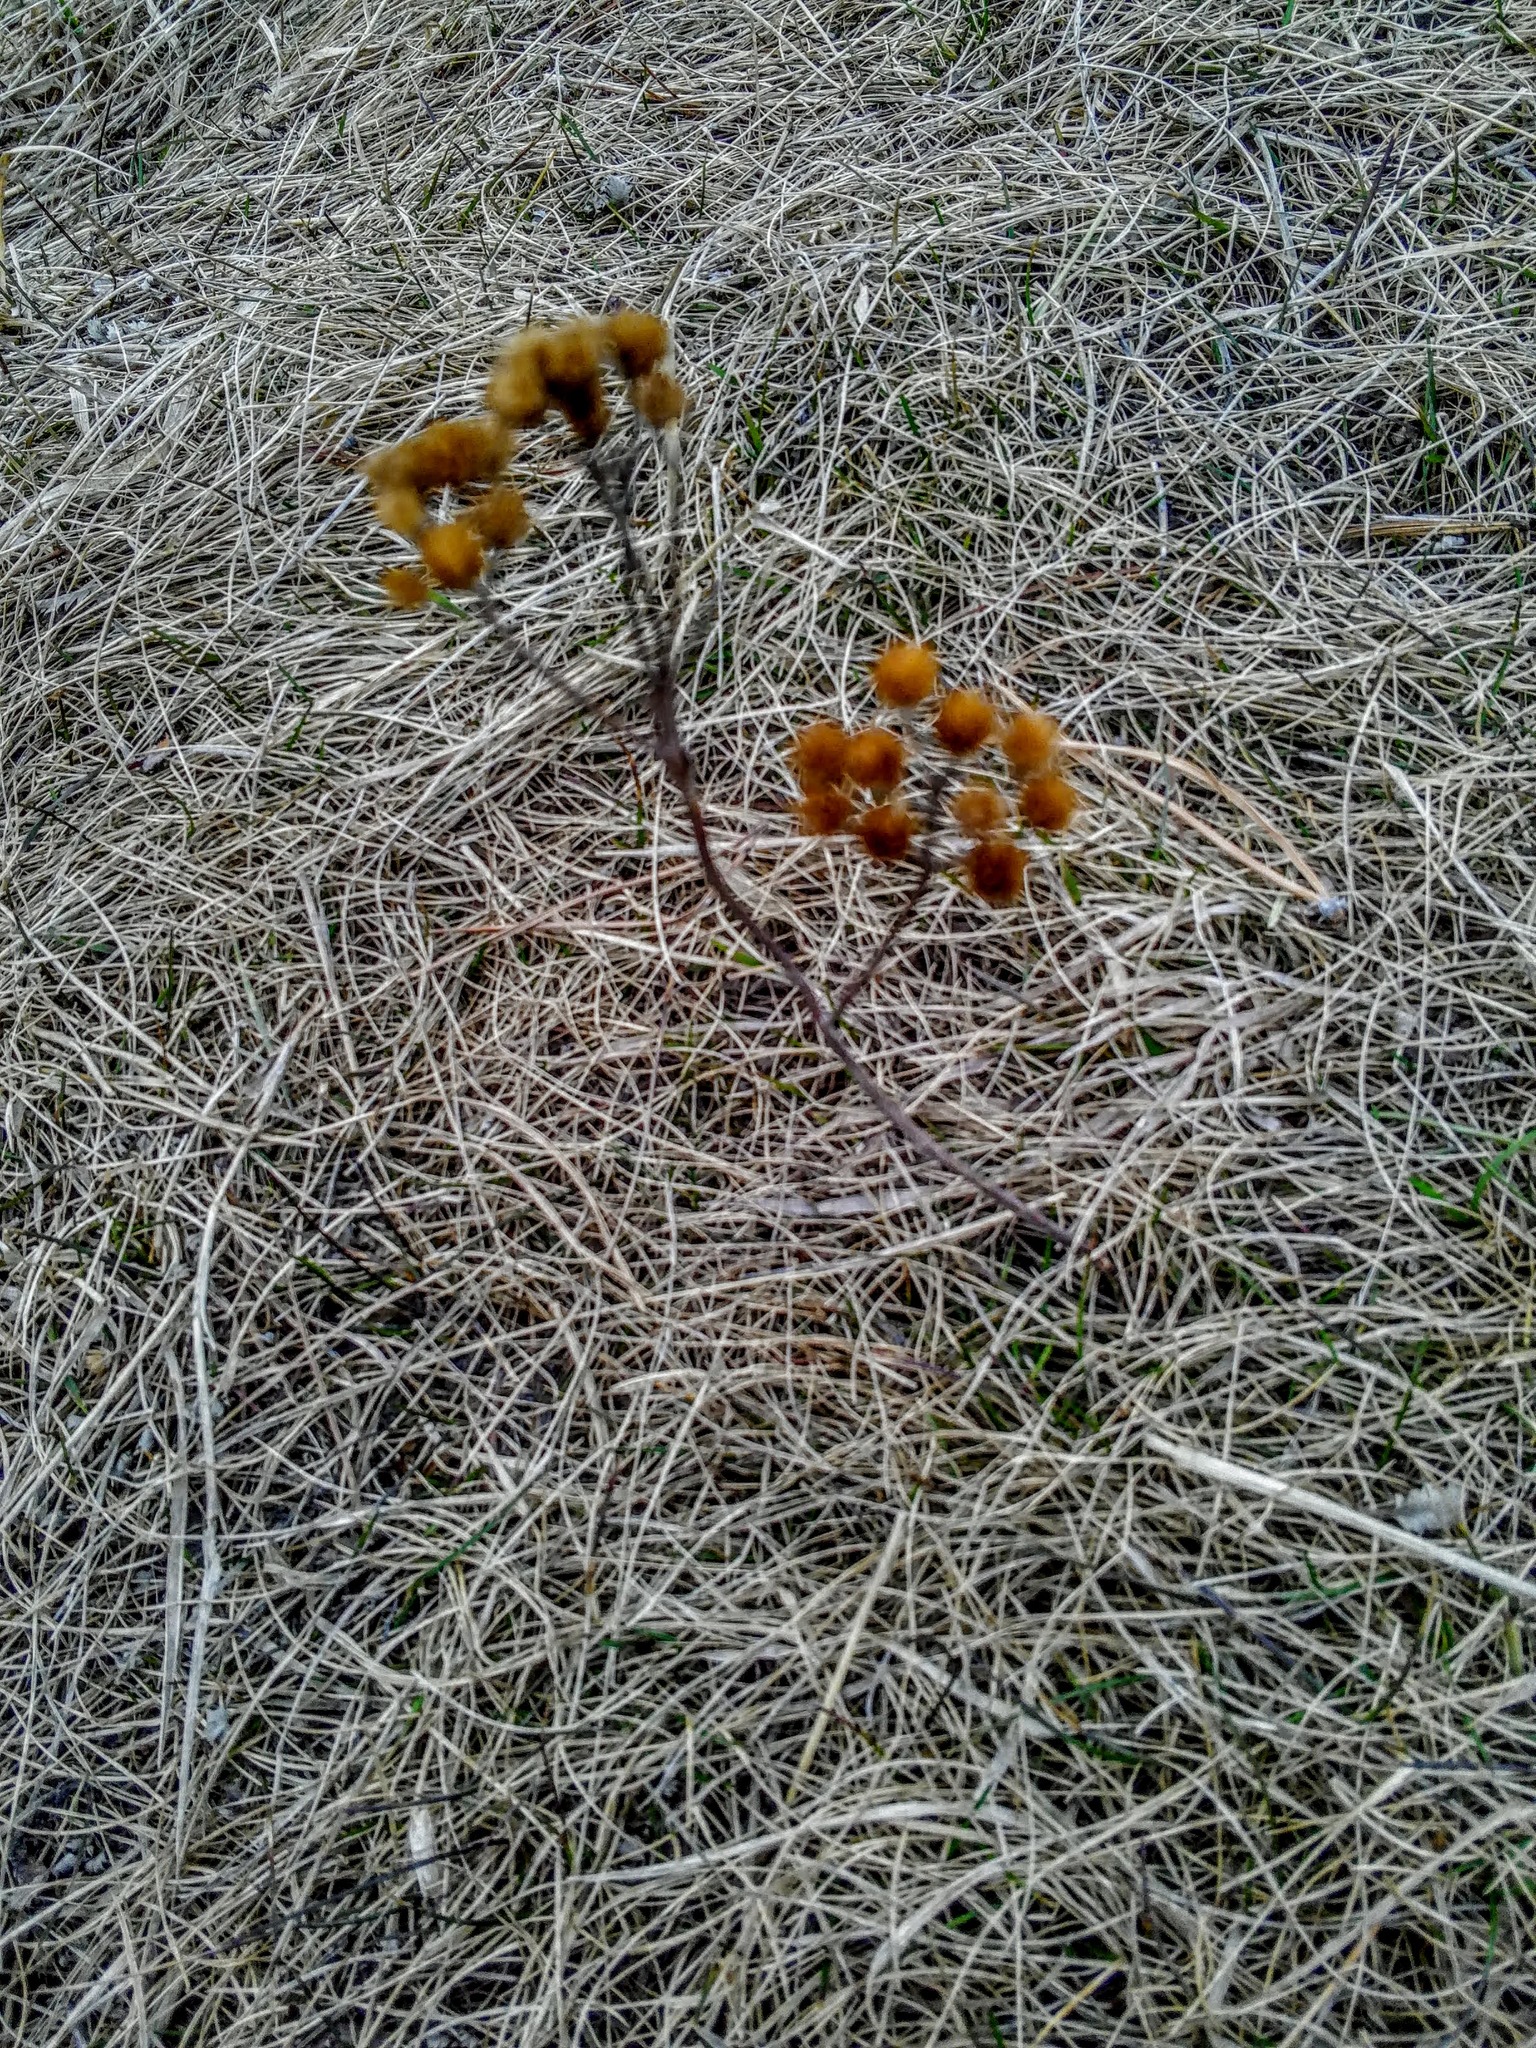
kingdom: Plantae
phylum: Tracheophyta
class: Magnoliopsida
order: Asterales
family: Asteraceae
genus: Tanacetum
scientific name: Tanacetum vulgare
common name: Common tansy
